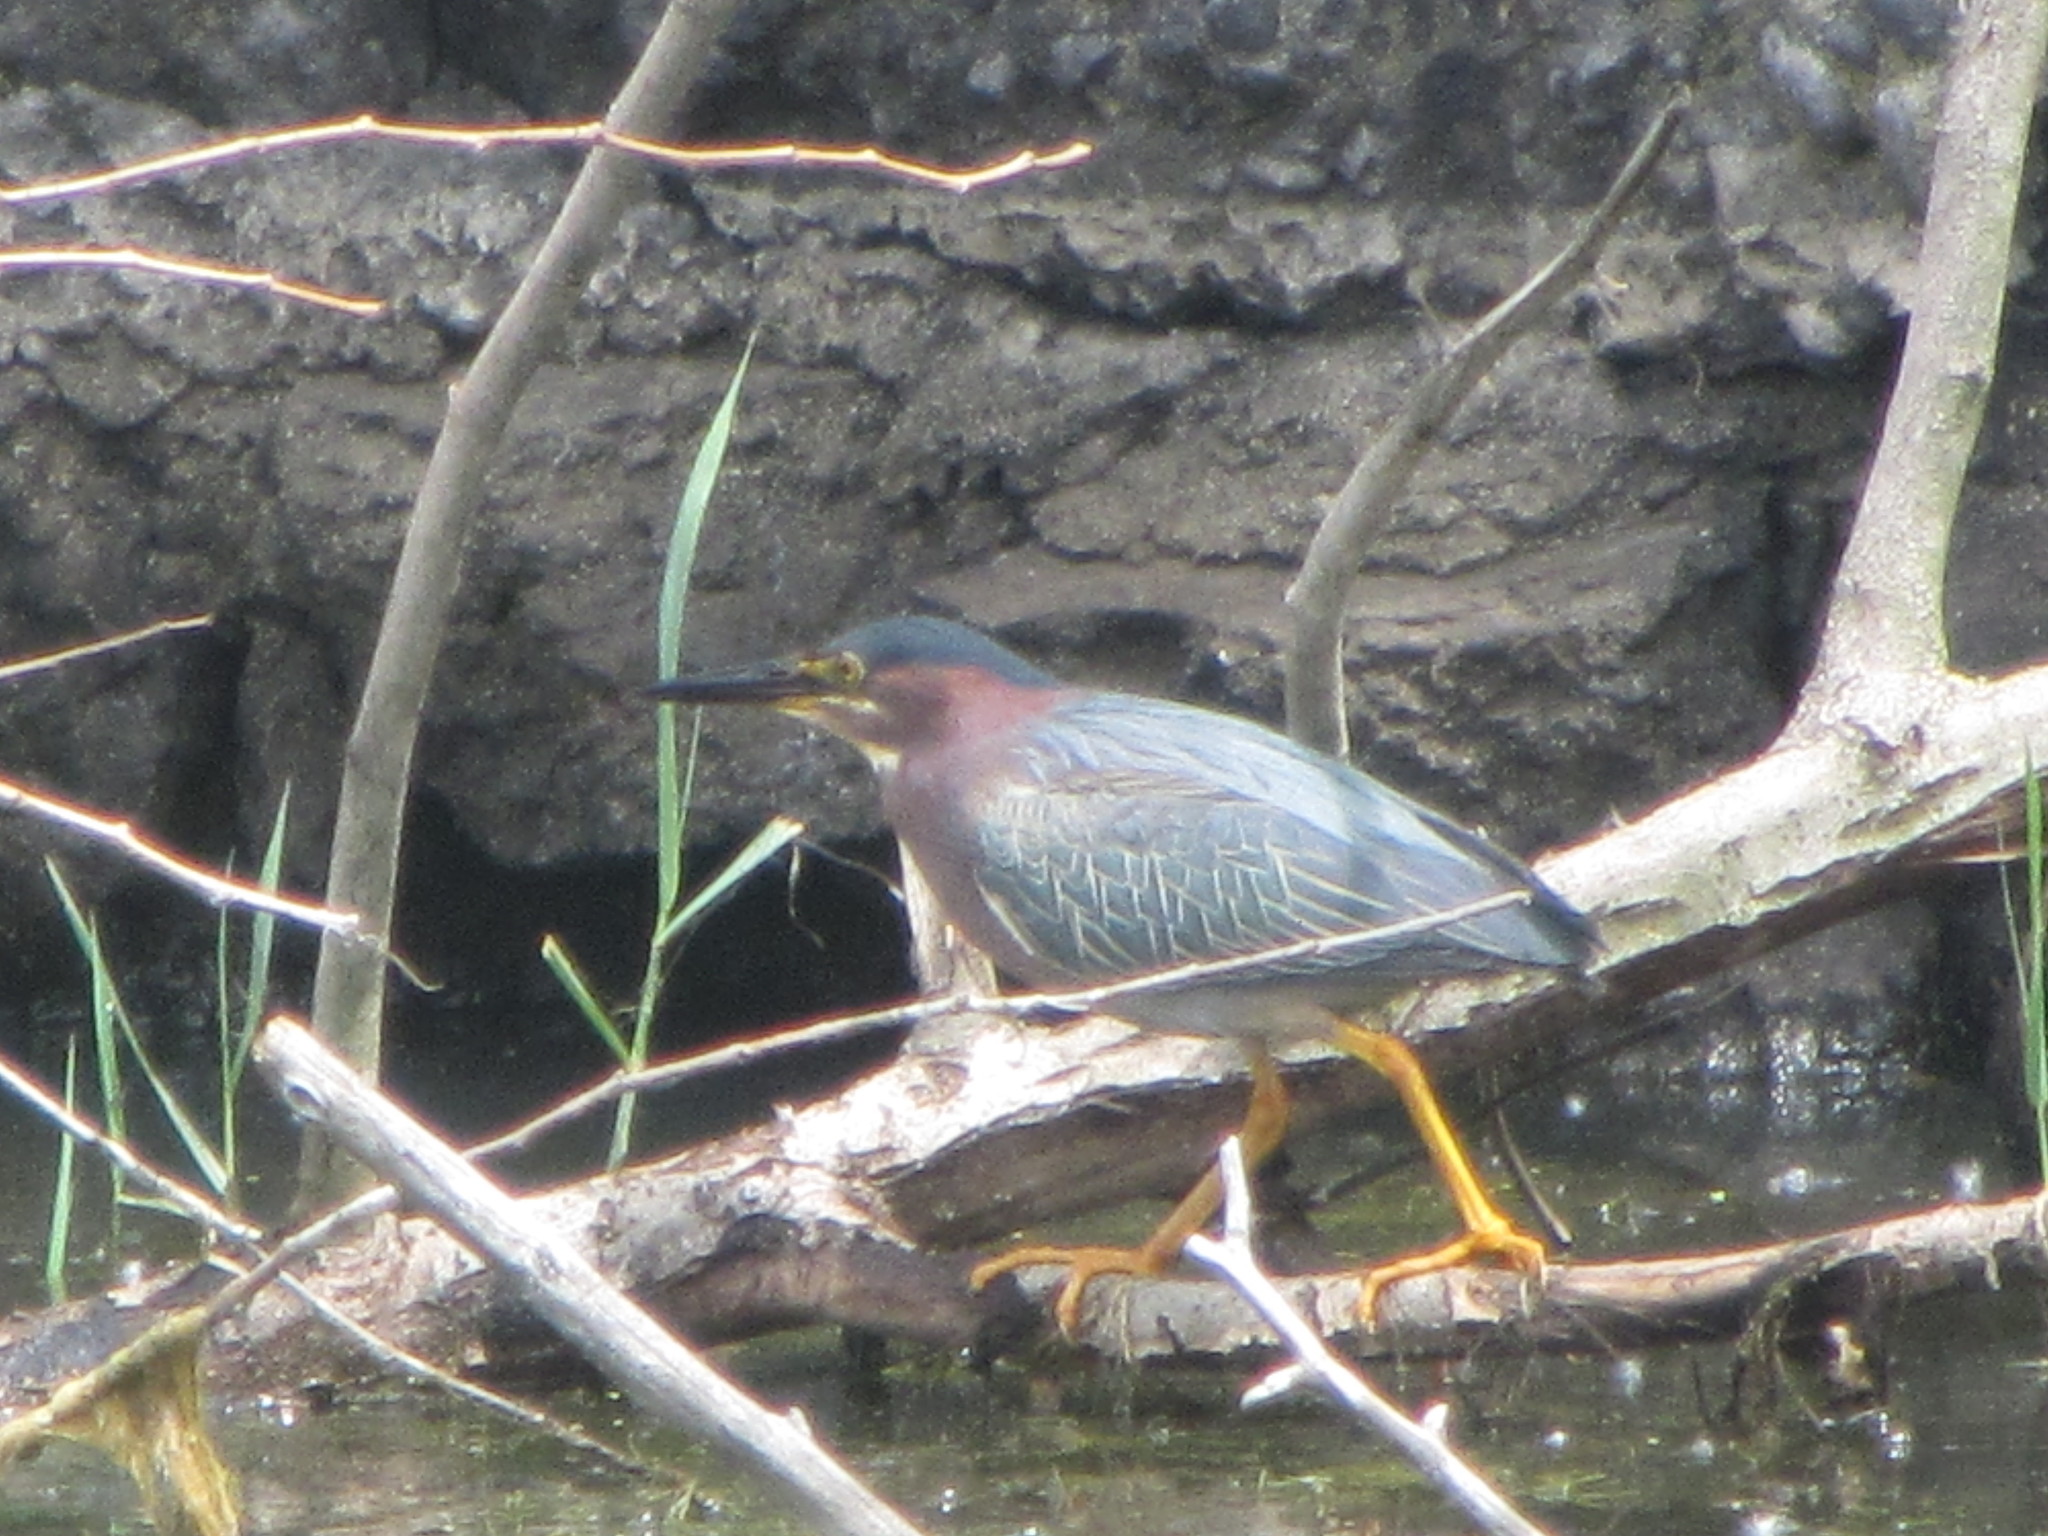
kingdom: Animalia
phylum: Chordata
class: Aves
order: Pelecaniformes
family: Ardeidae
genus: Butorides
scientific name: Butorides virescens
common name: Green heron
